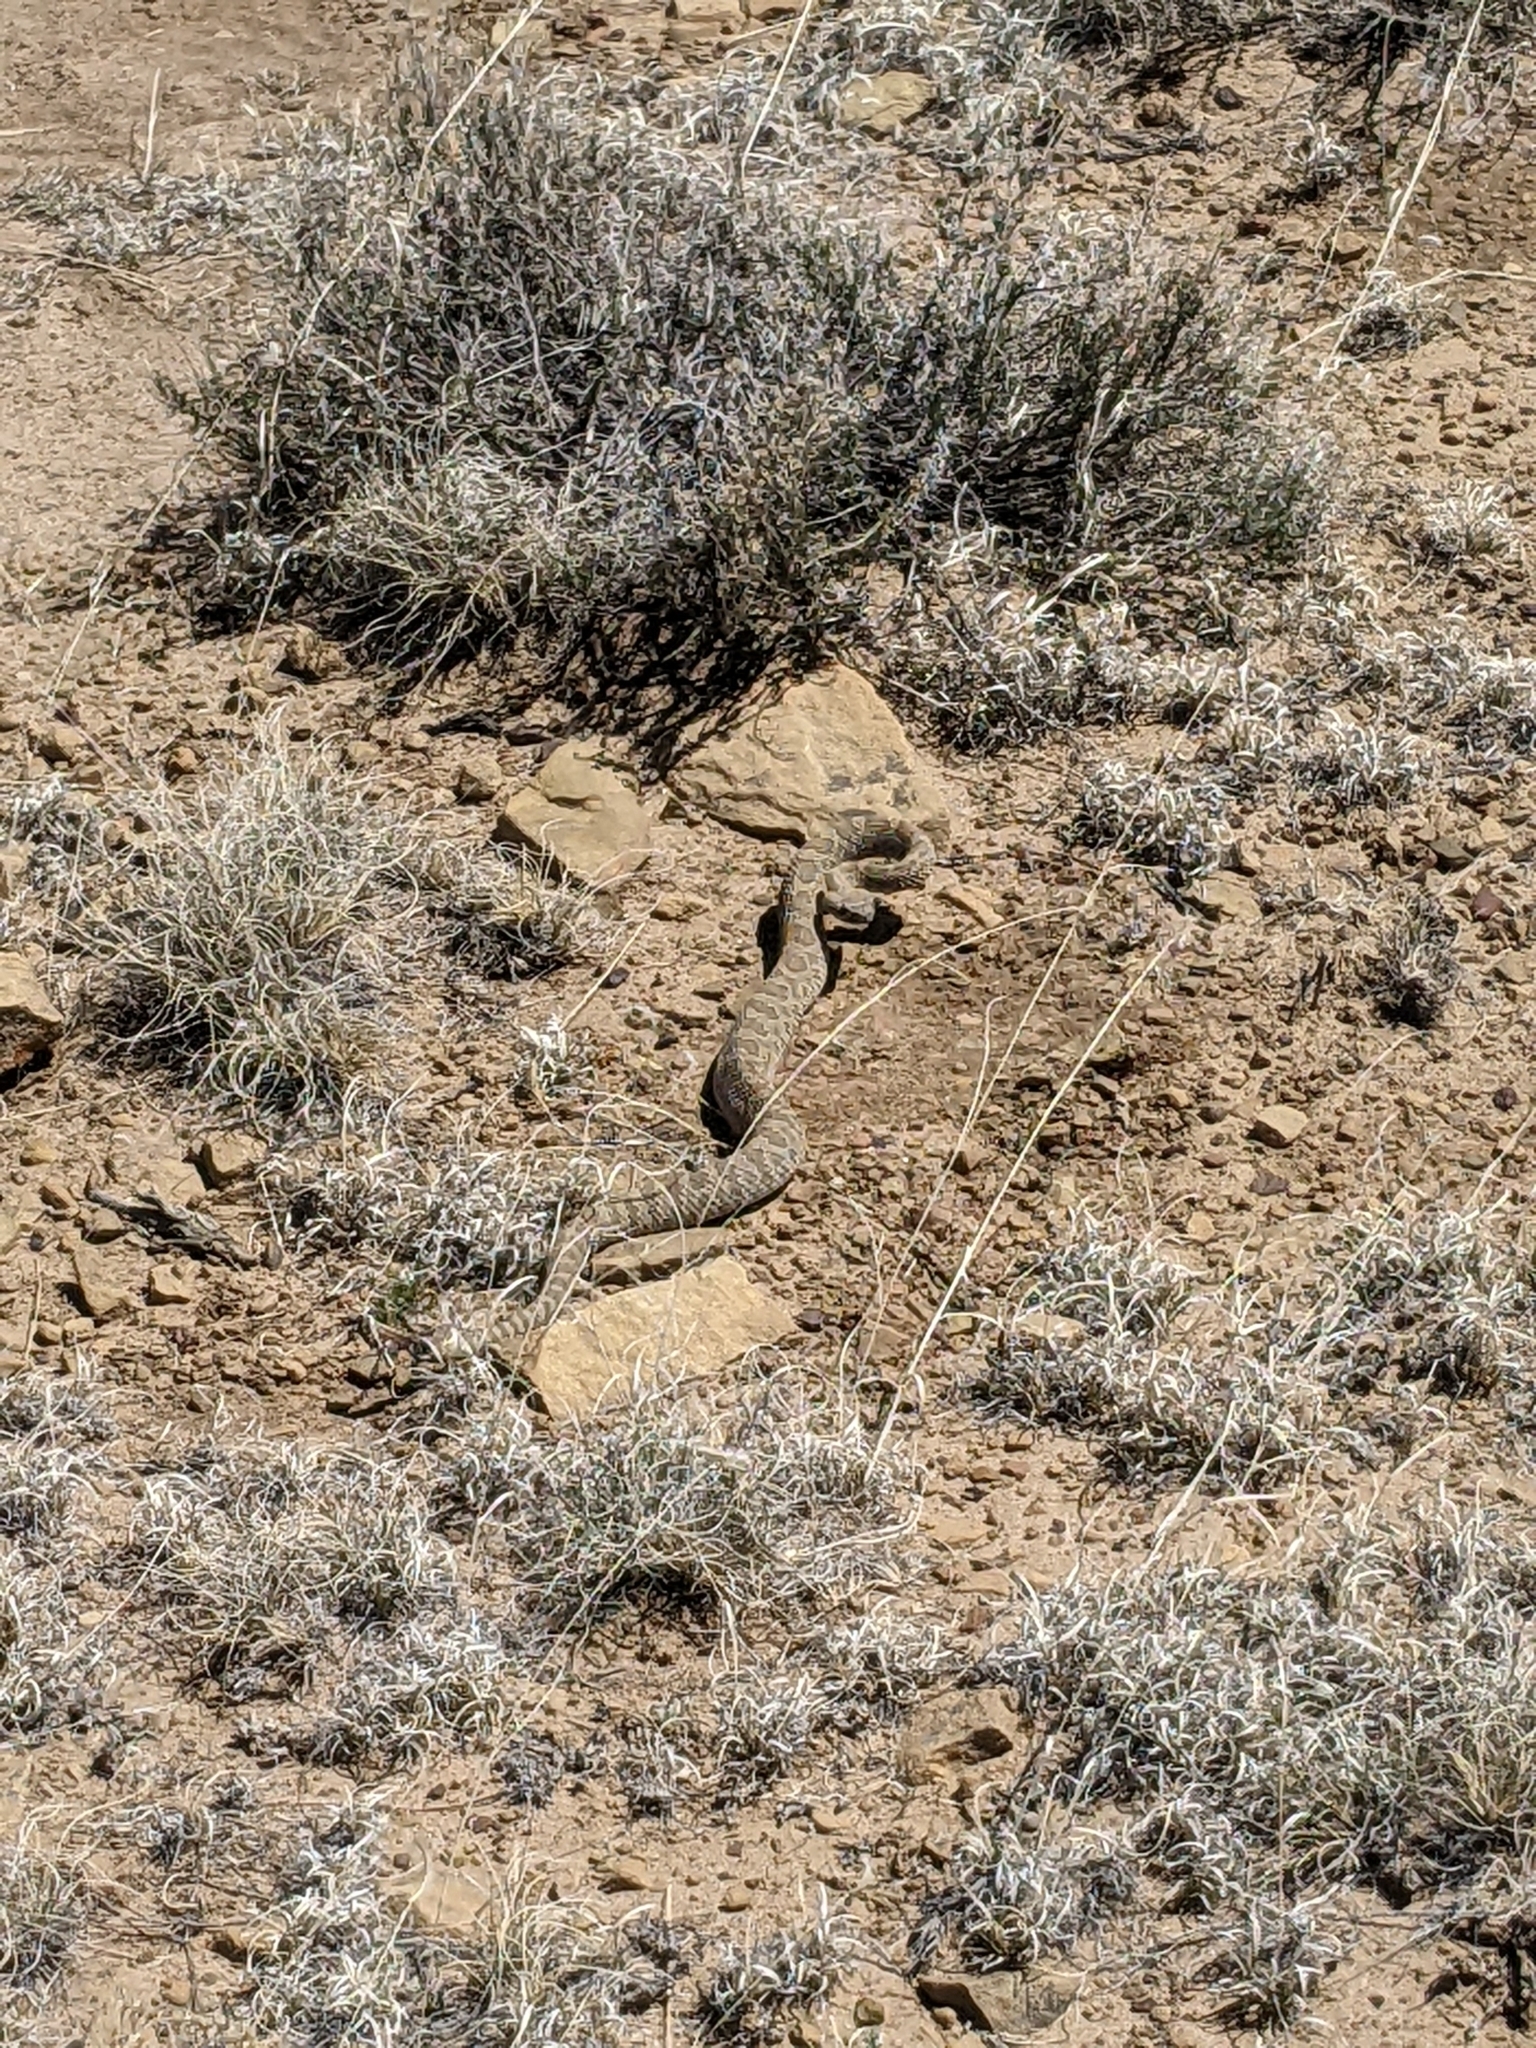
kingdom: Animalia
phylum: Chordata
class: Squamata
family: Viperidae
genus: Crotalus
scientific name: Crotalus viridis
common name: Prairie rattlesnake
